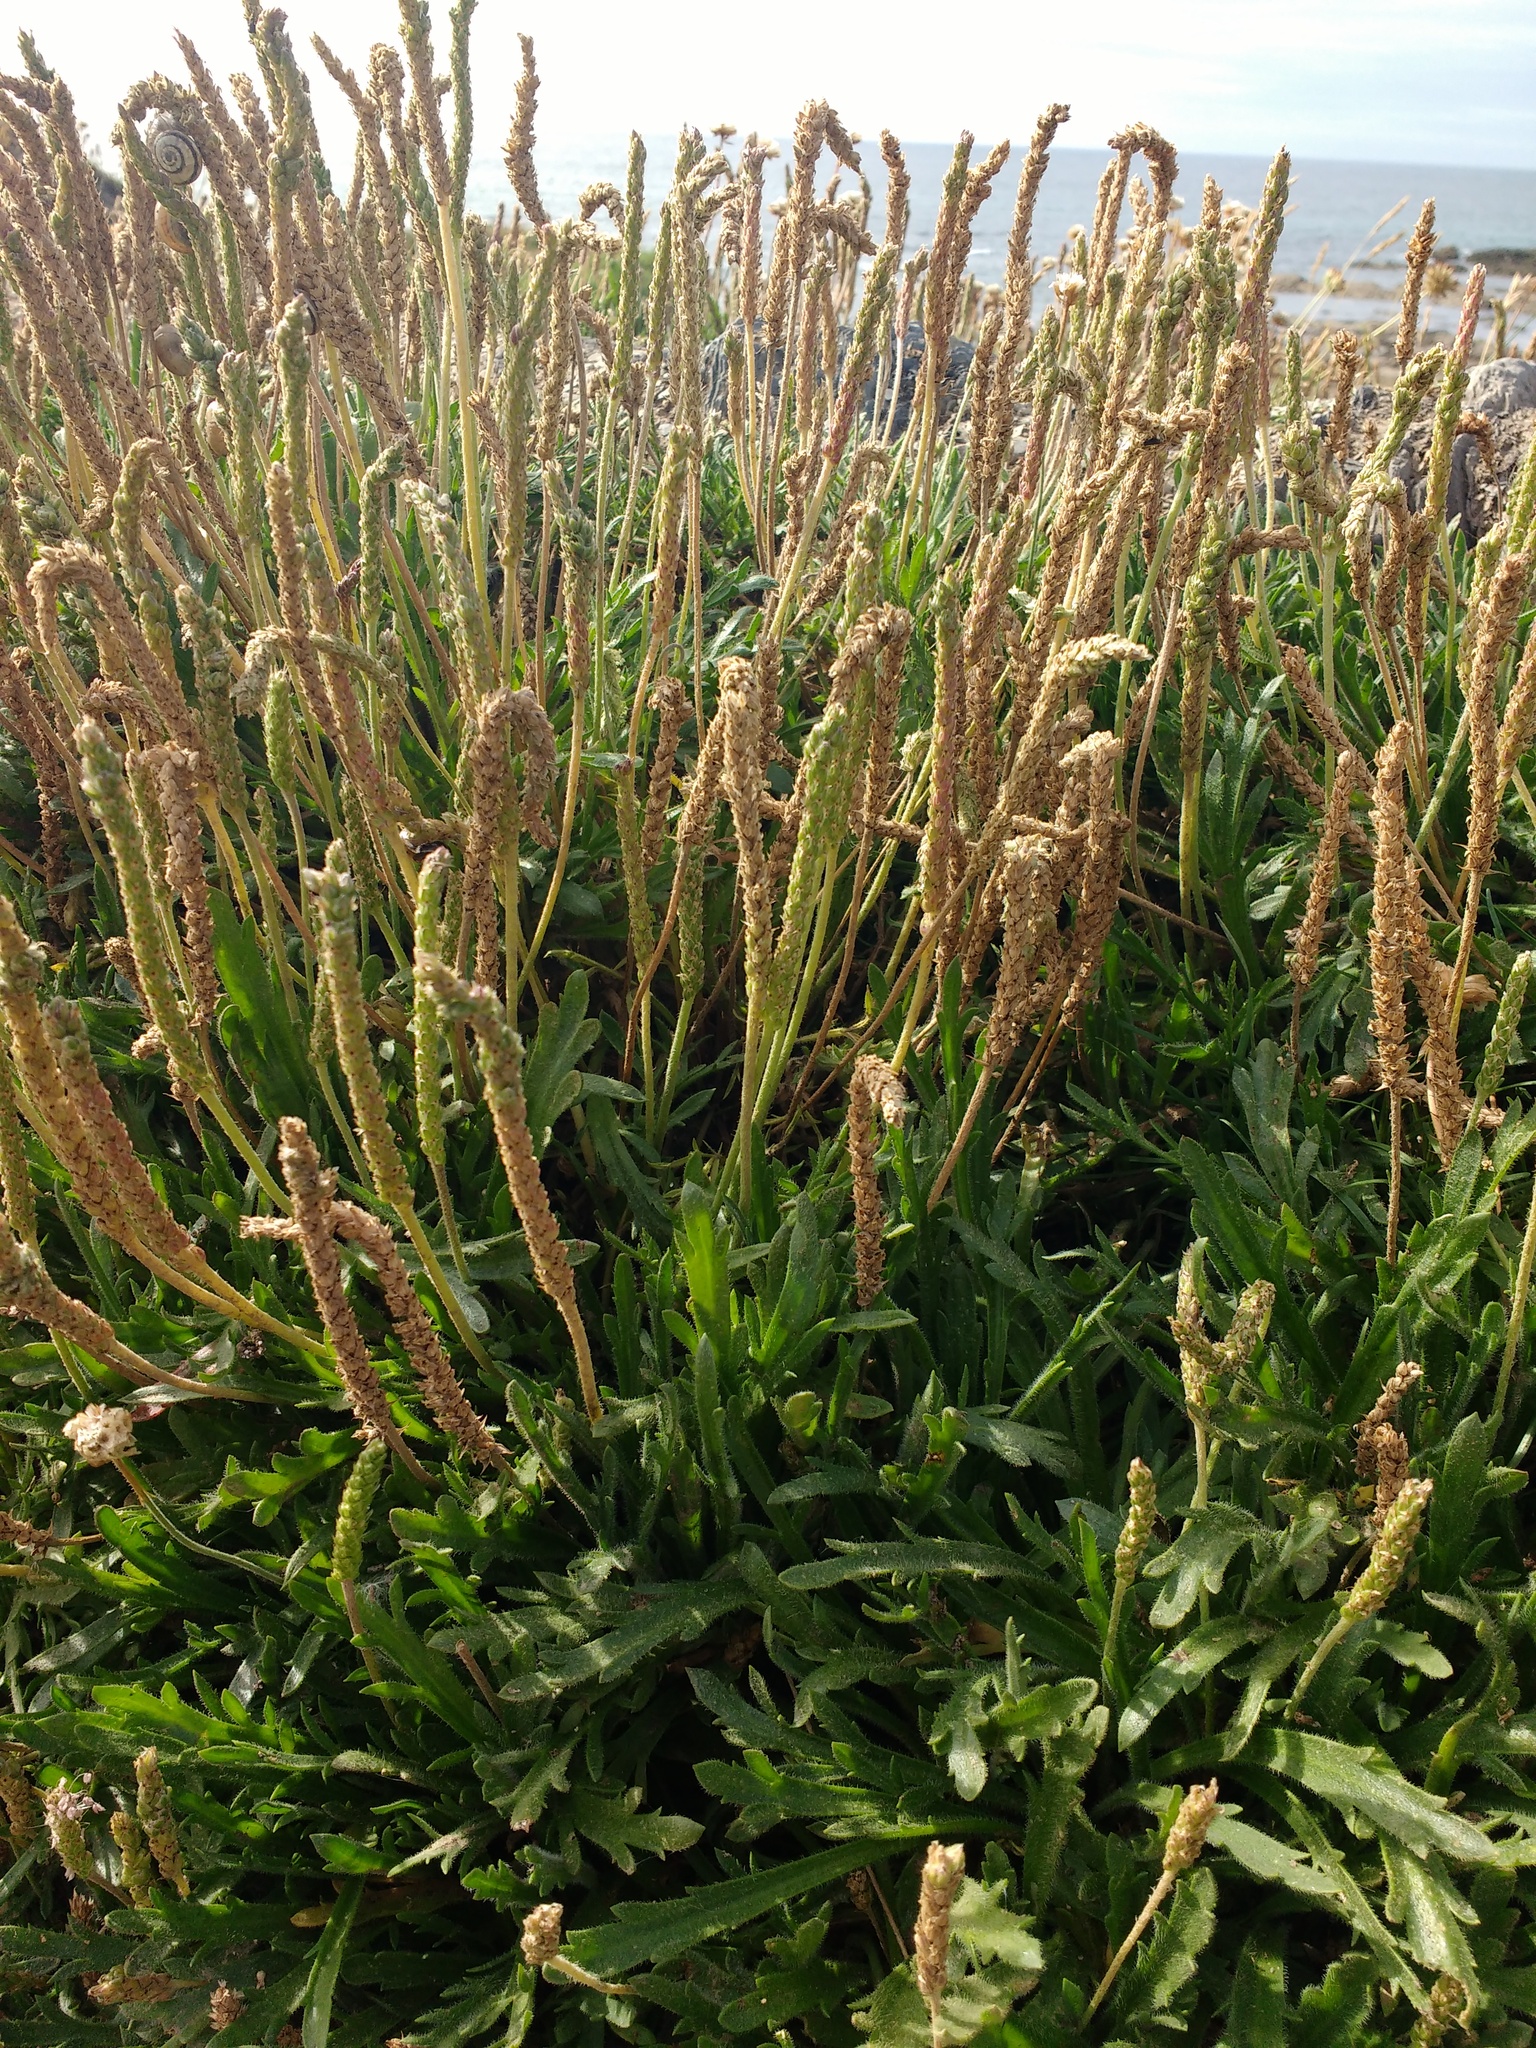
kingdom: Plantae
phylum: Tracheophyta
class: Magnoliopsida
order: Lamiales
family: Plantaginaceae
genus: Plantago
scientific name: Plantago coronopus
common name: Buck's-horn plantain
